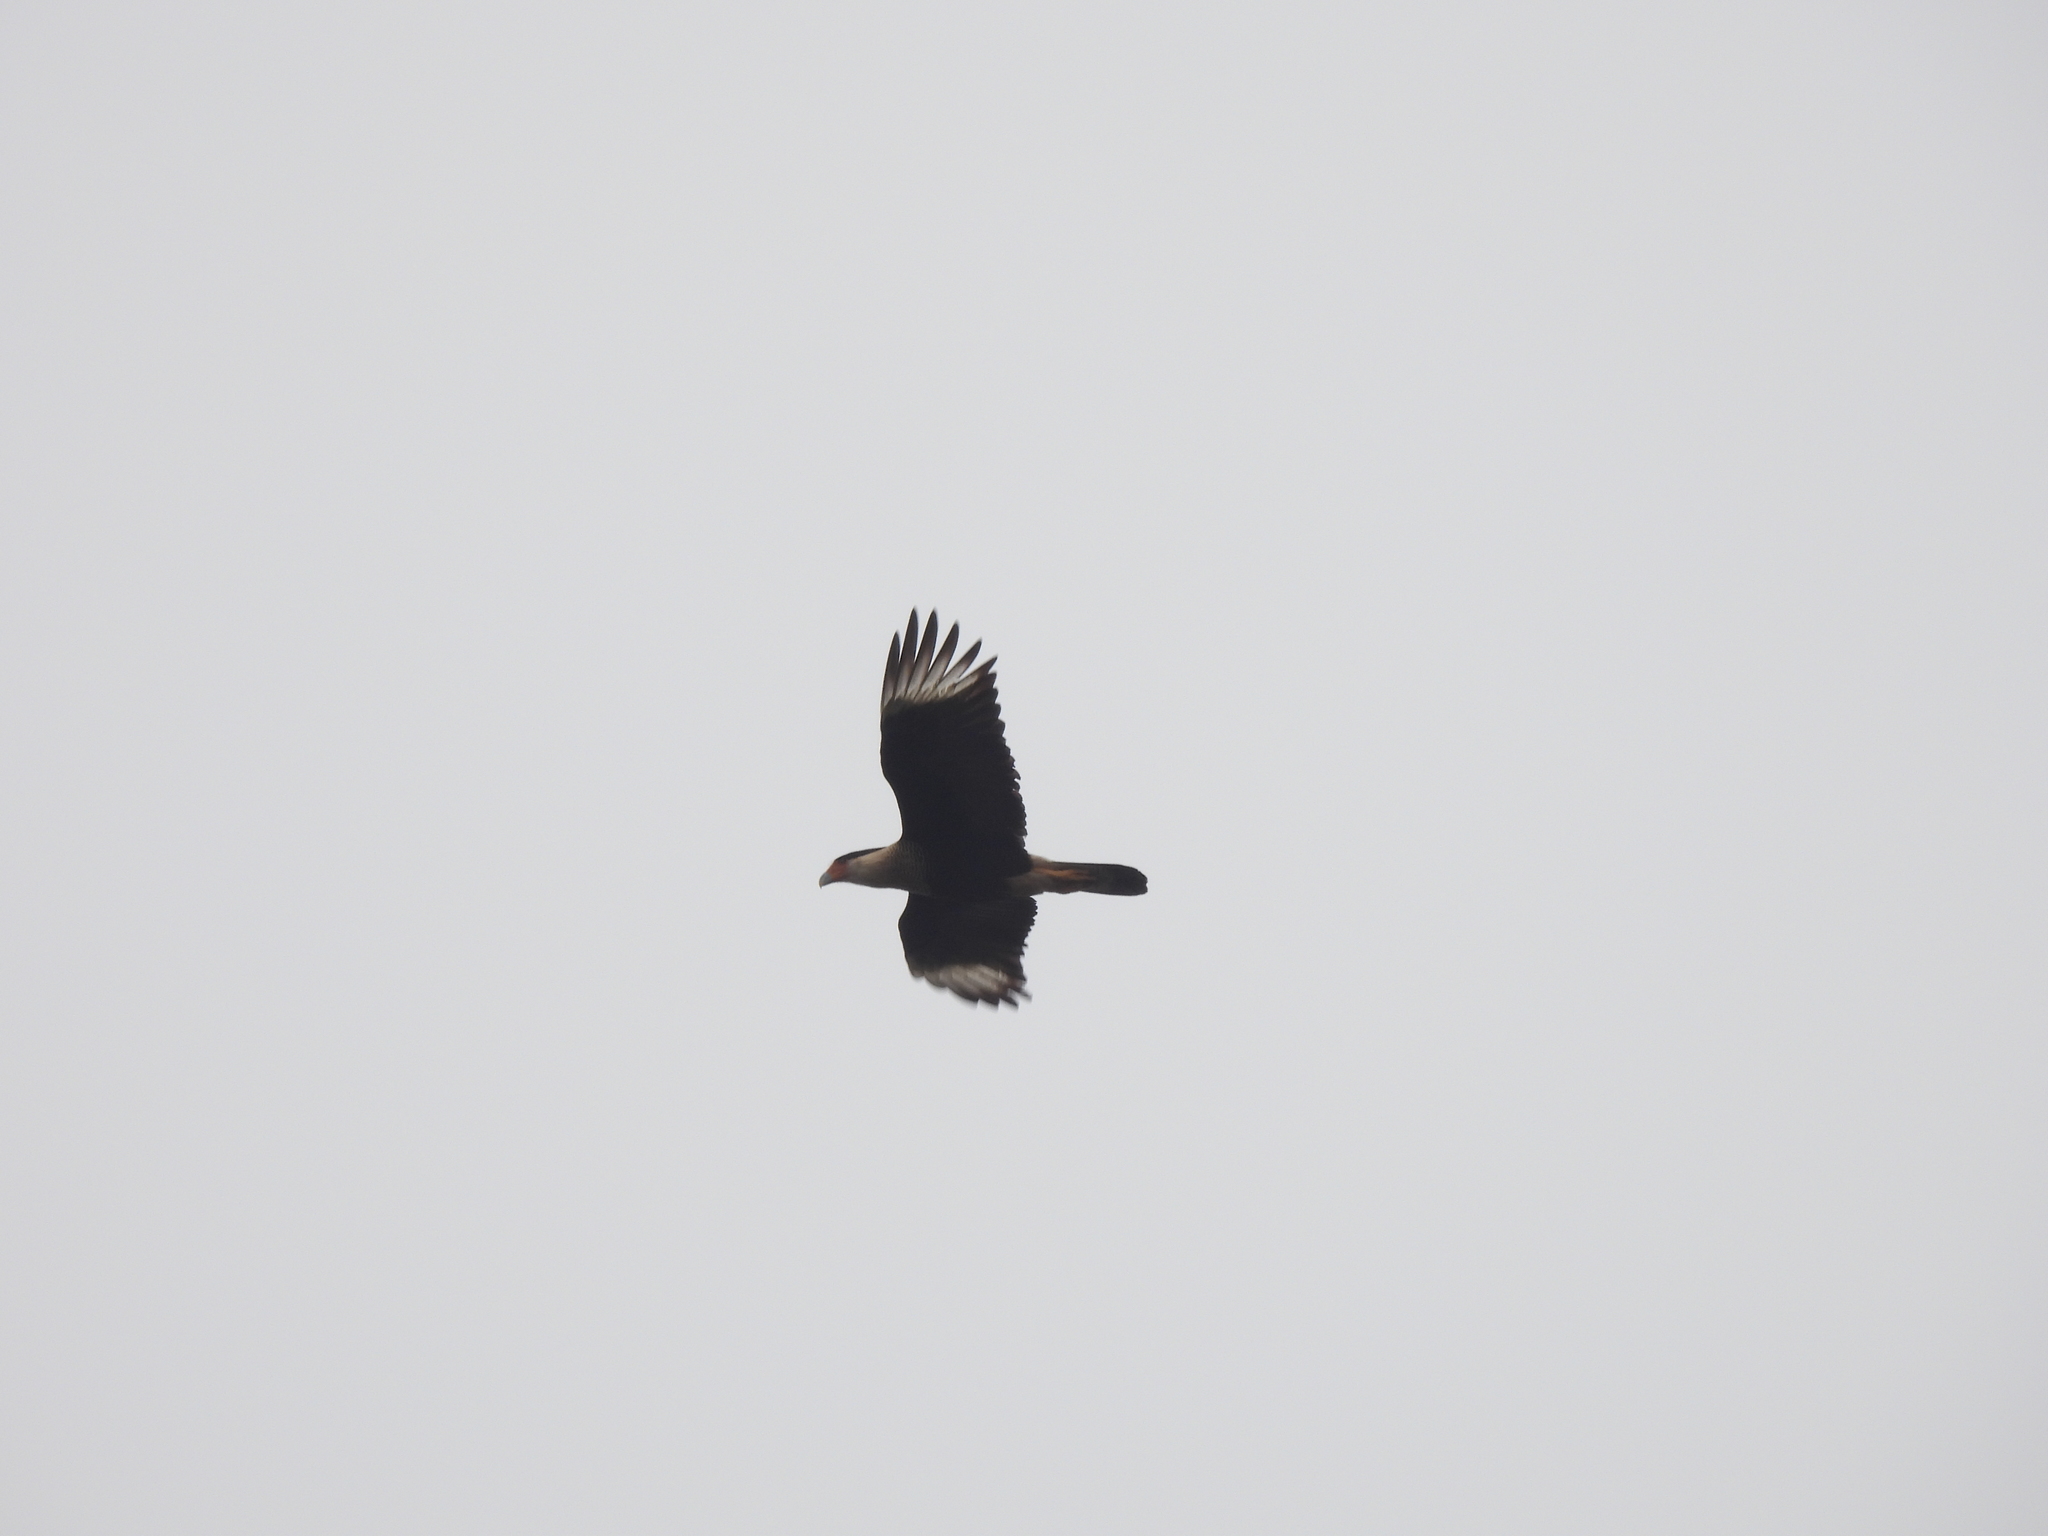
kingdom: Animalia
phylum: Chordata
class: Aves
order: Falconiformes
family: Falconidae
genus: Caracara
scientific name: Caracara plancus
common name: Southern caracara
